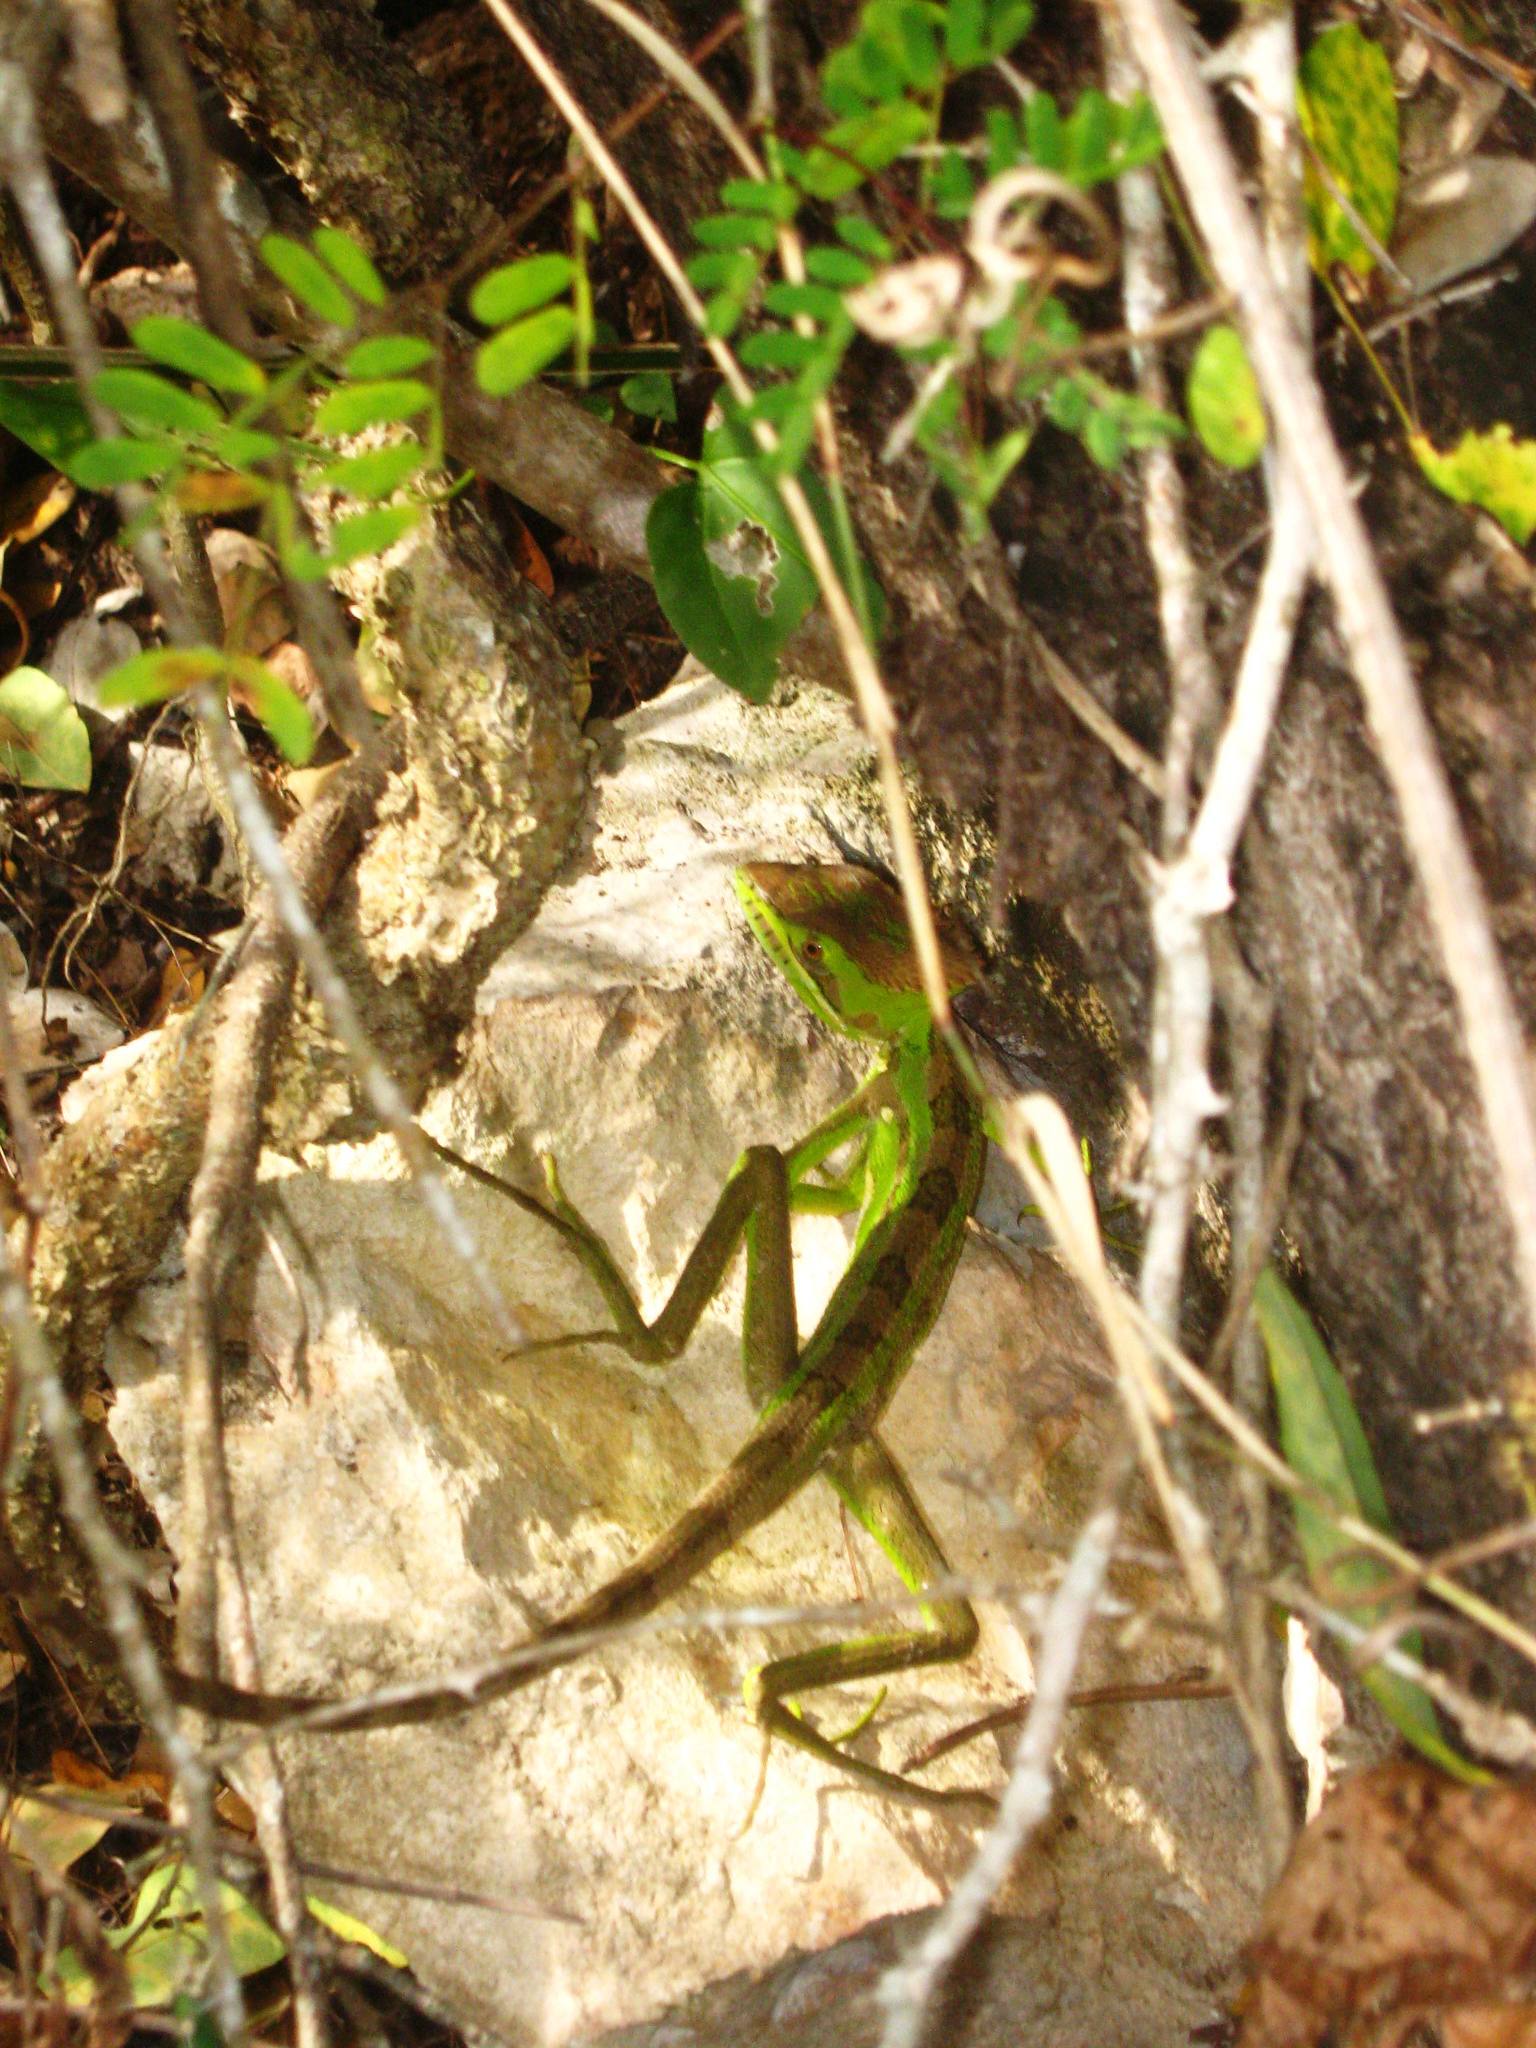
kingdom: Animalia
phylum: Chordata
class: Squamata
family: Corytophanidae
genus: Laemanctus
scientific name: Laemanctus serratus
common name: Serrated casquehead iguana
